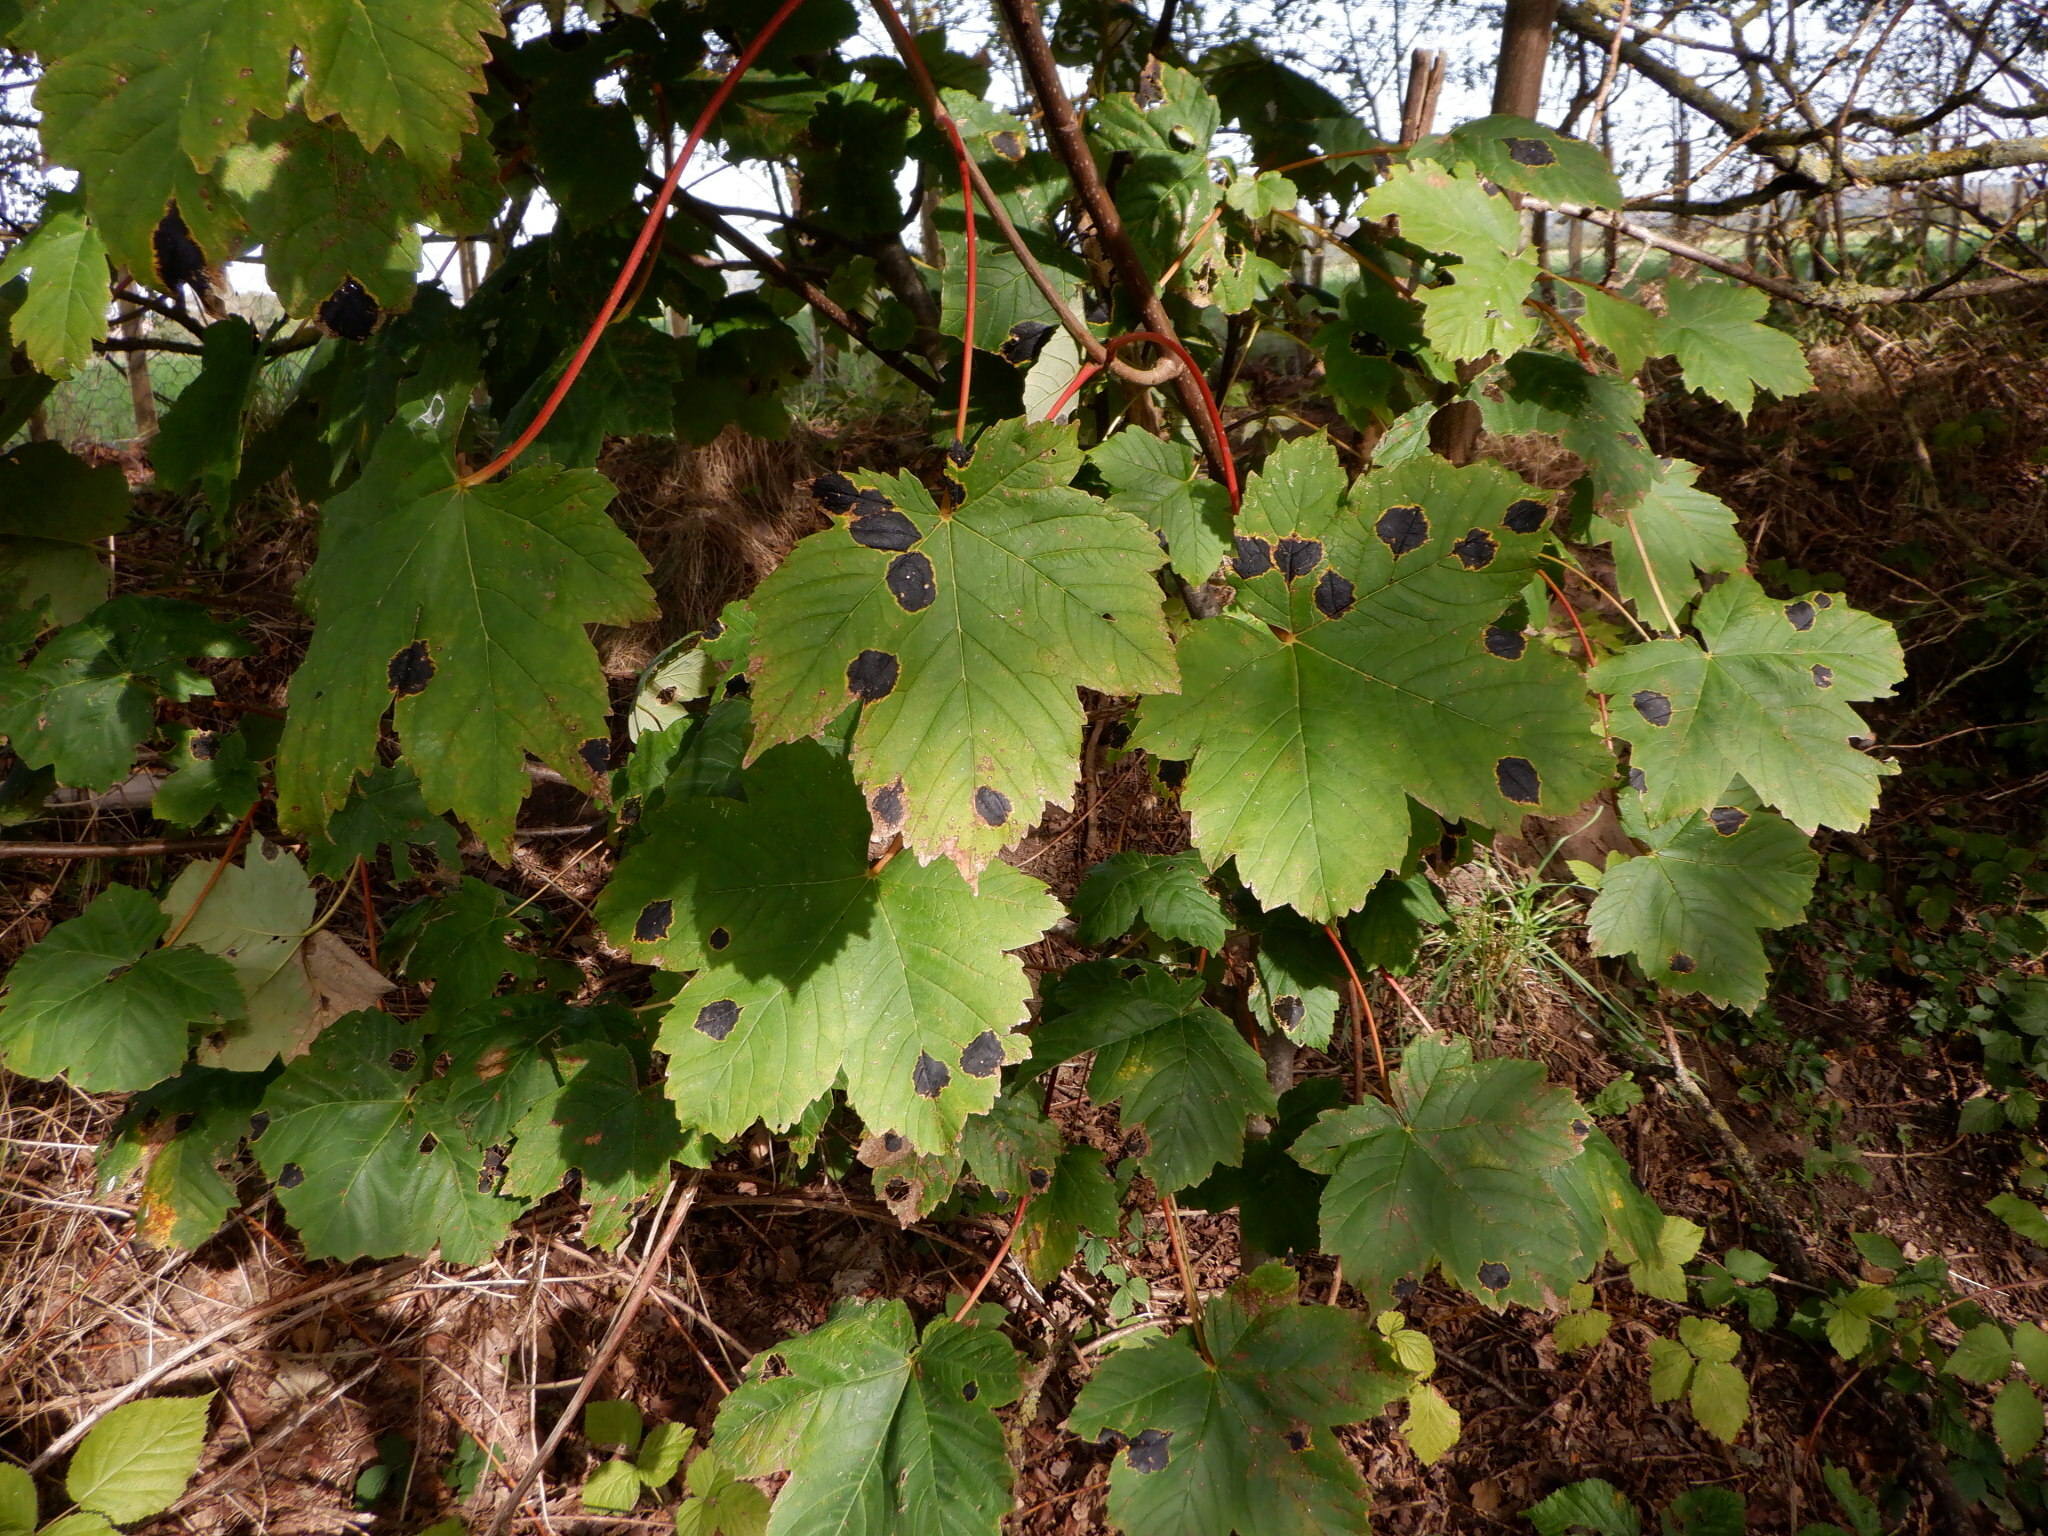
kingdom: Fungi
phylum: Ascomycota
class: Leotiomycetes
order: Rhytismatales
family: Rhytismataceae
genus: Rhytisma
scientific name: Rhytisma acerinum
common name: European tar spot
